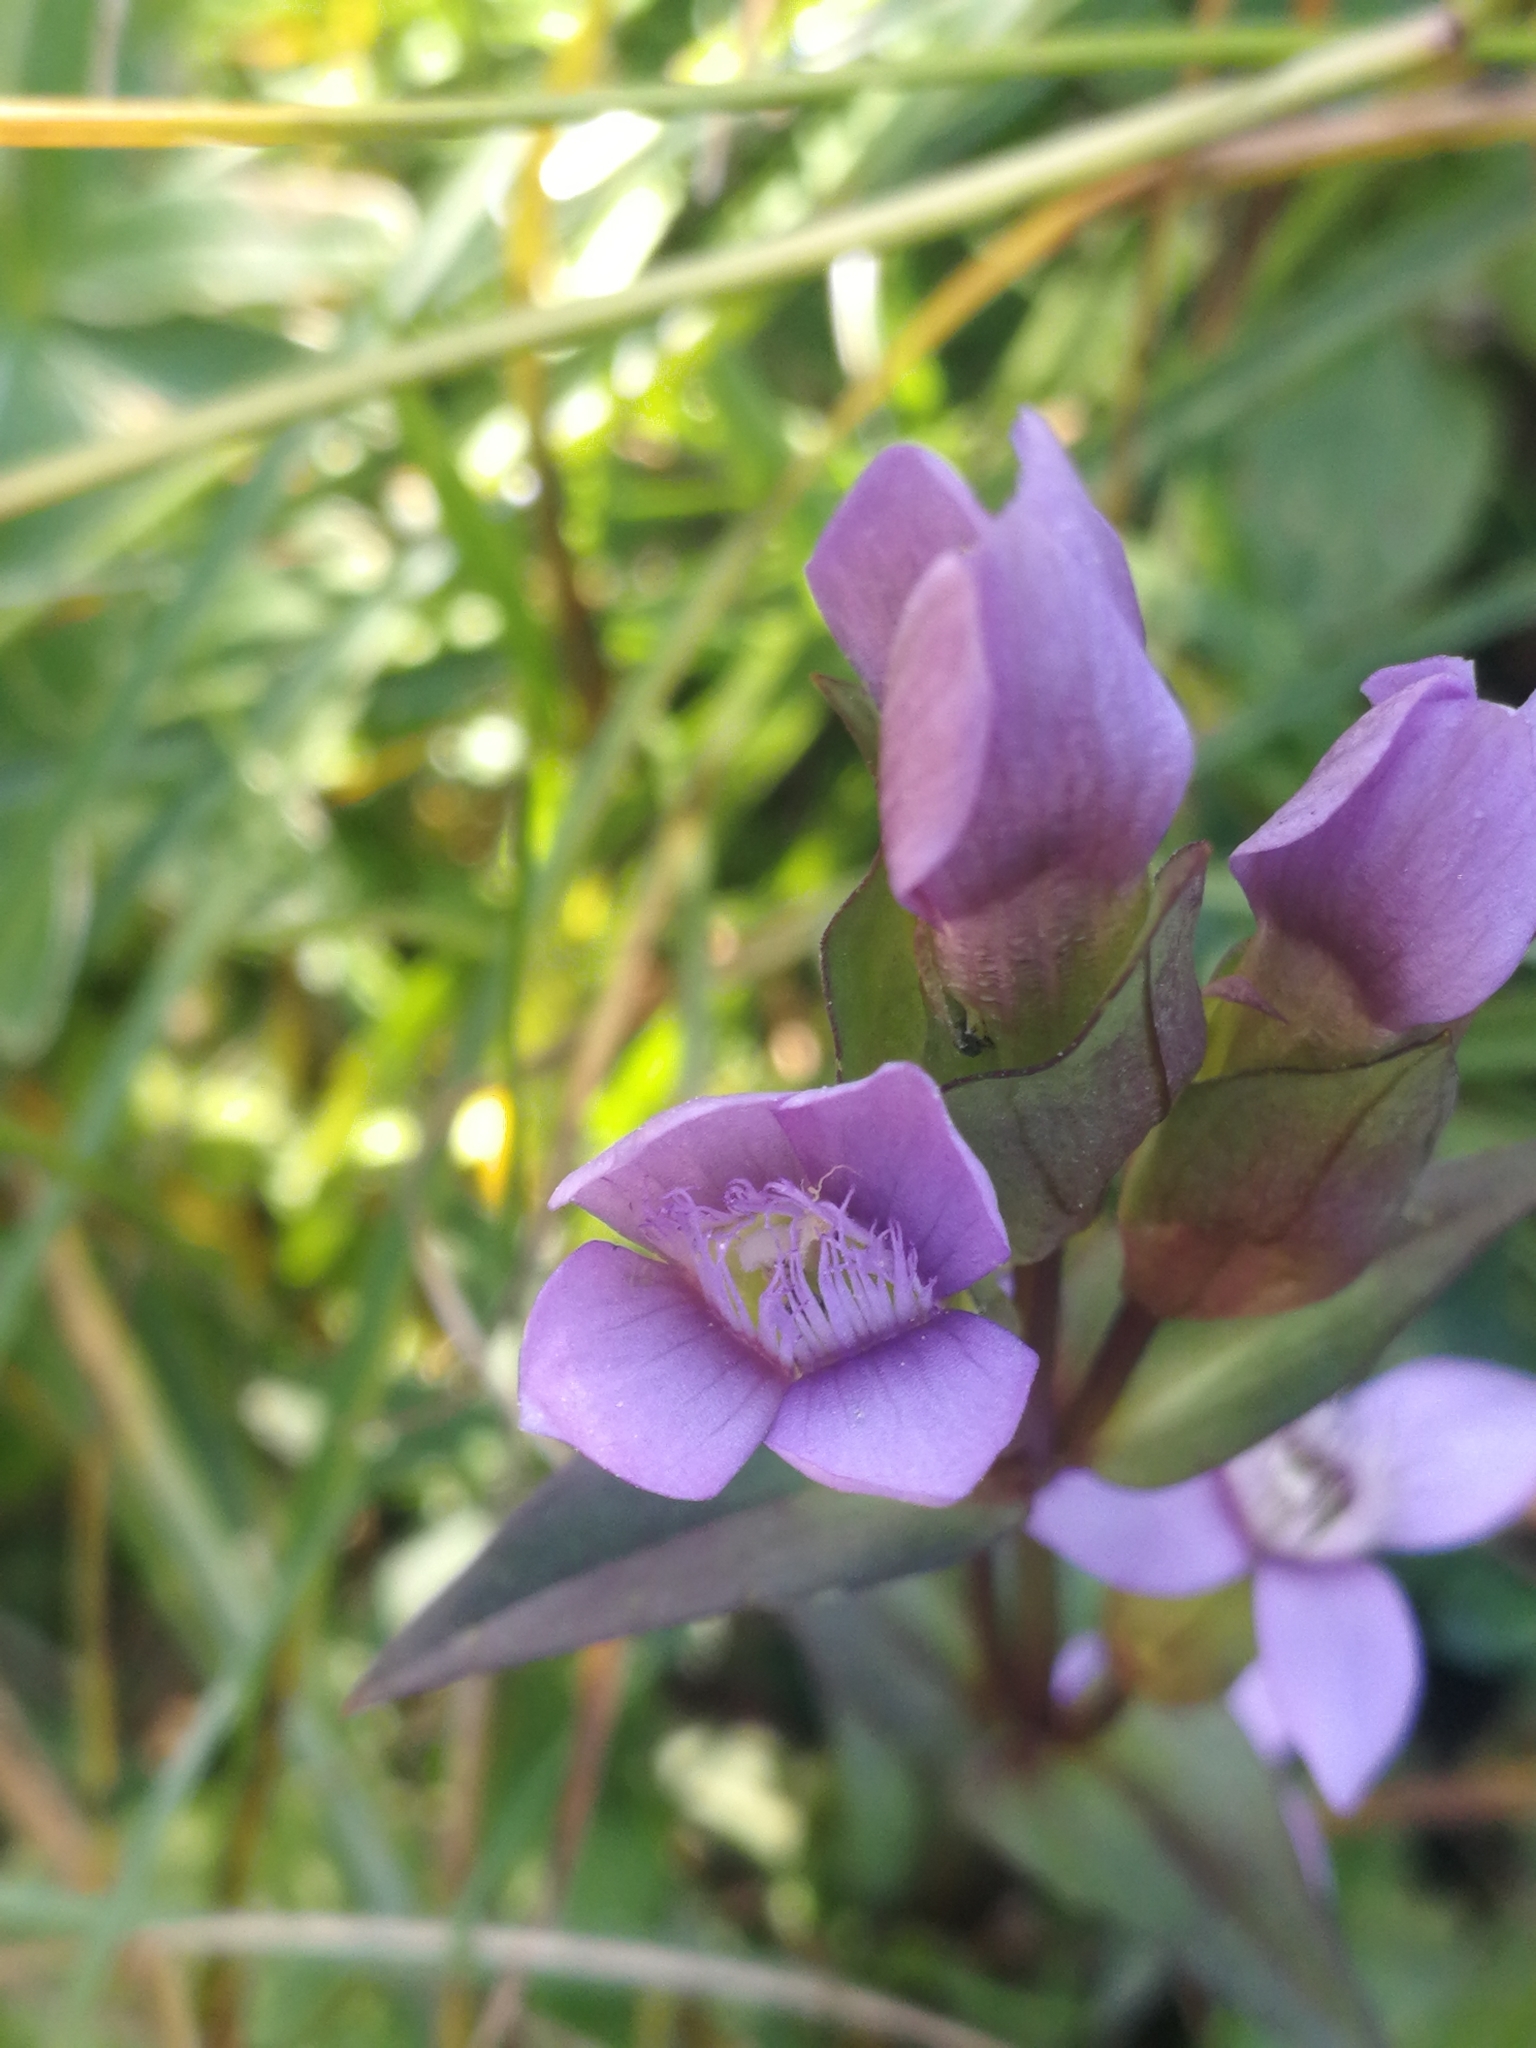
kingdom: Plantae
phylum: Tracheophyta
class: Magnoliopsida
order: Gentianales
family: Gentianaceae
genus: Gentianella
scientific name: Gentianella campestris
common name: Field gentian
